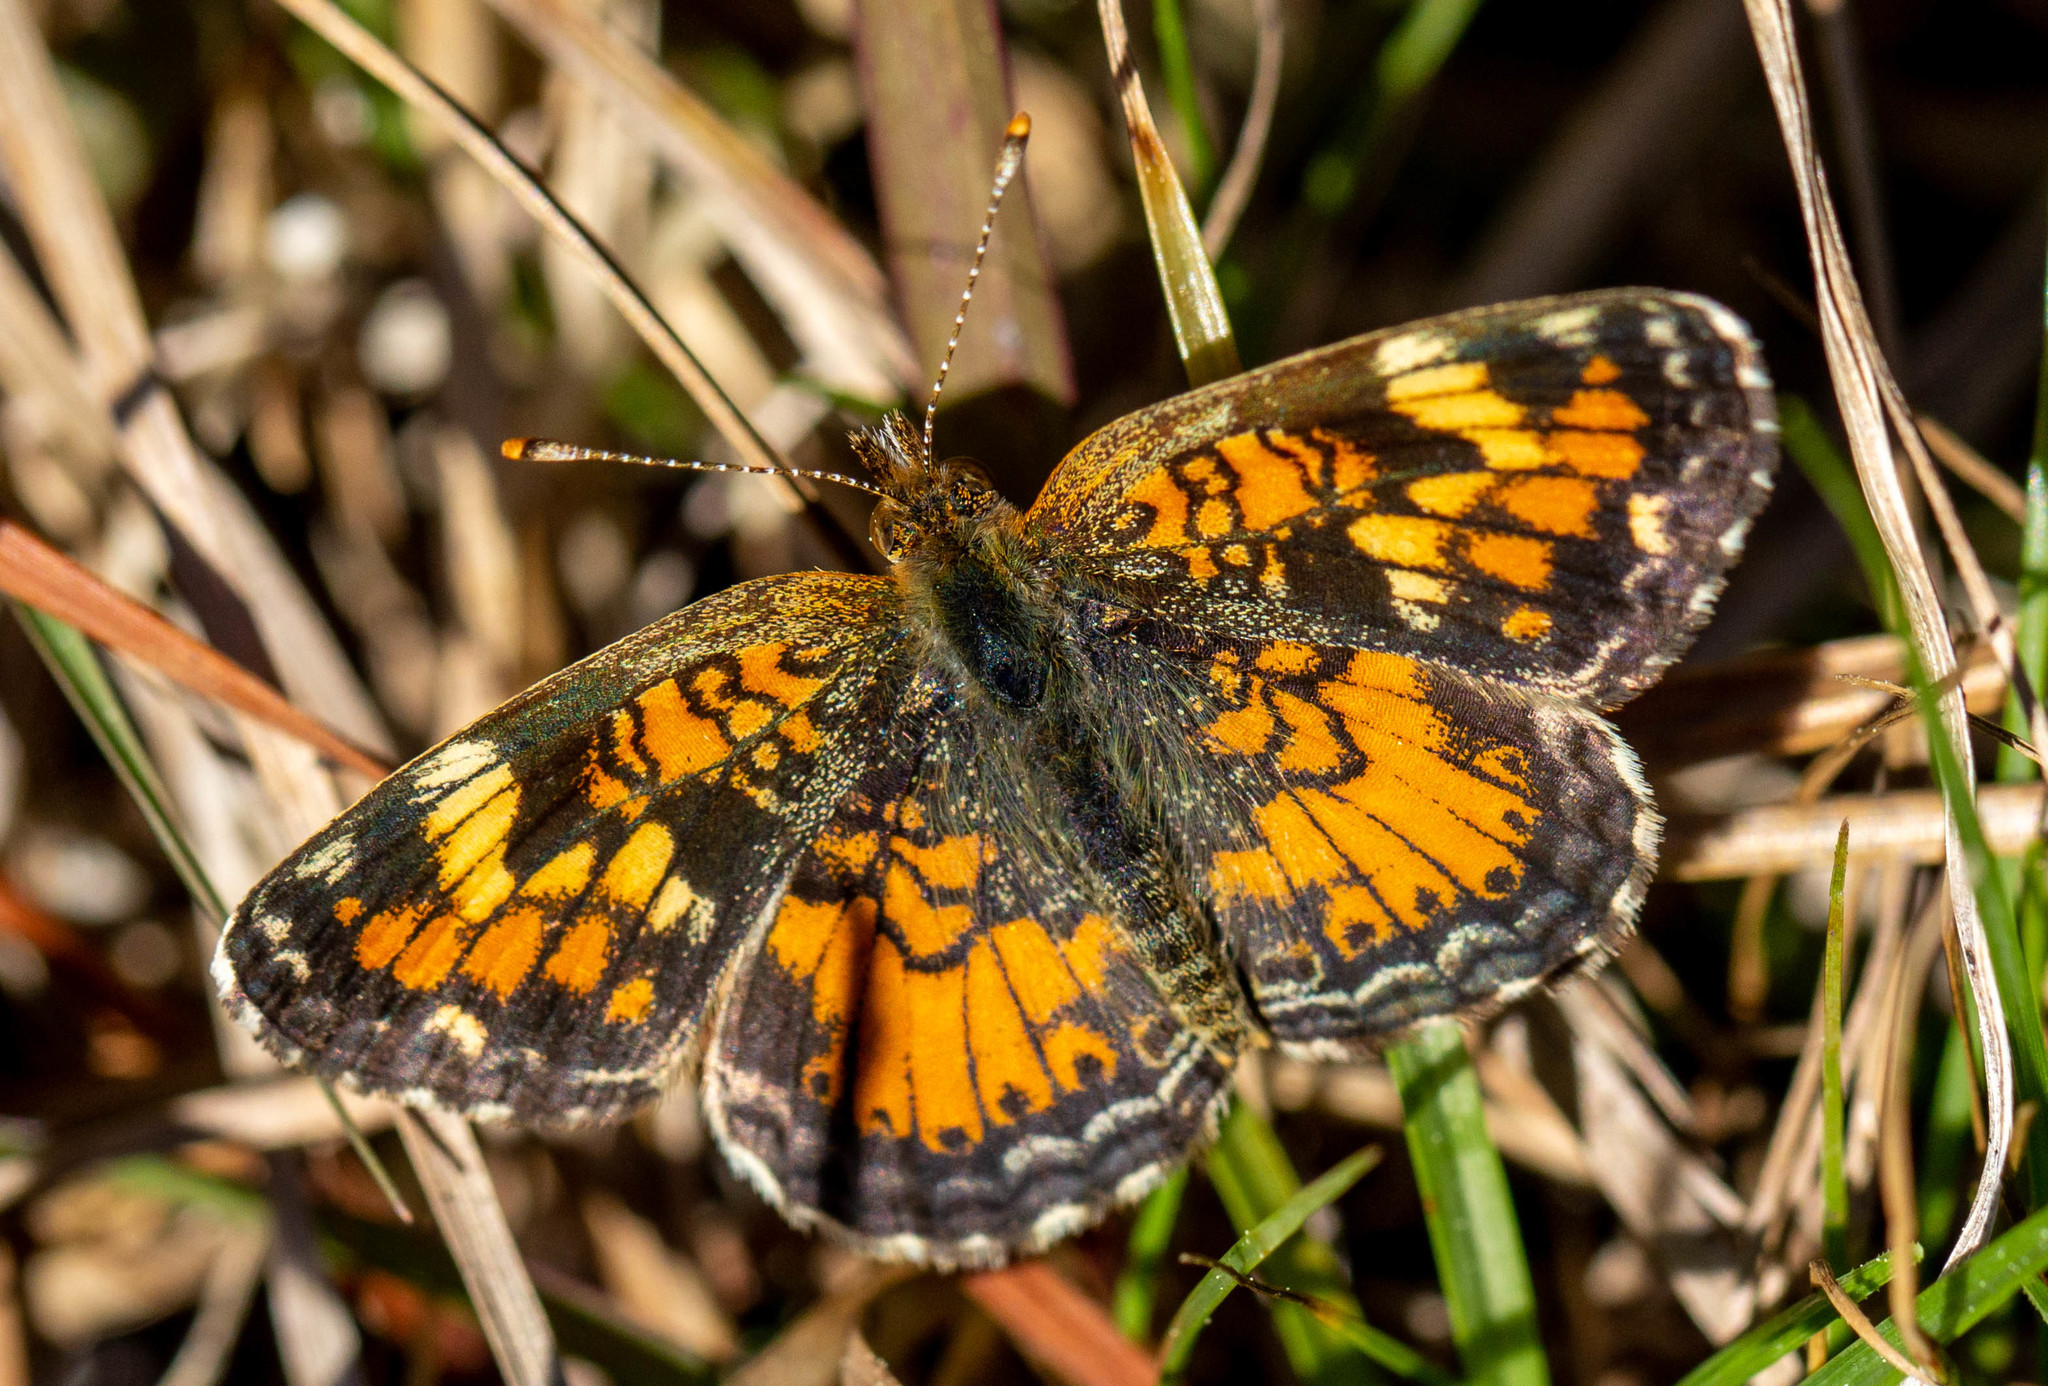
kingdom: Animalia
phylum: Arthropoda
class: Insecta
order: Lepidoptera
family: Nymphalidae
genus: Phyciodes
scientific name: Phyciodes phaon
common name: Phaon crescent
